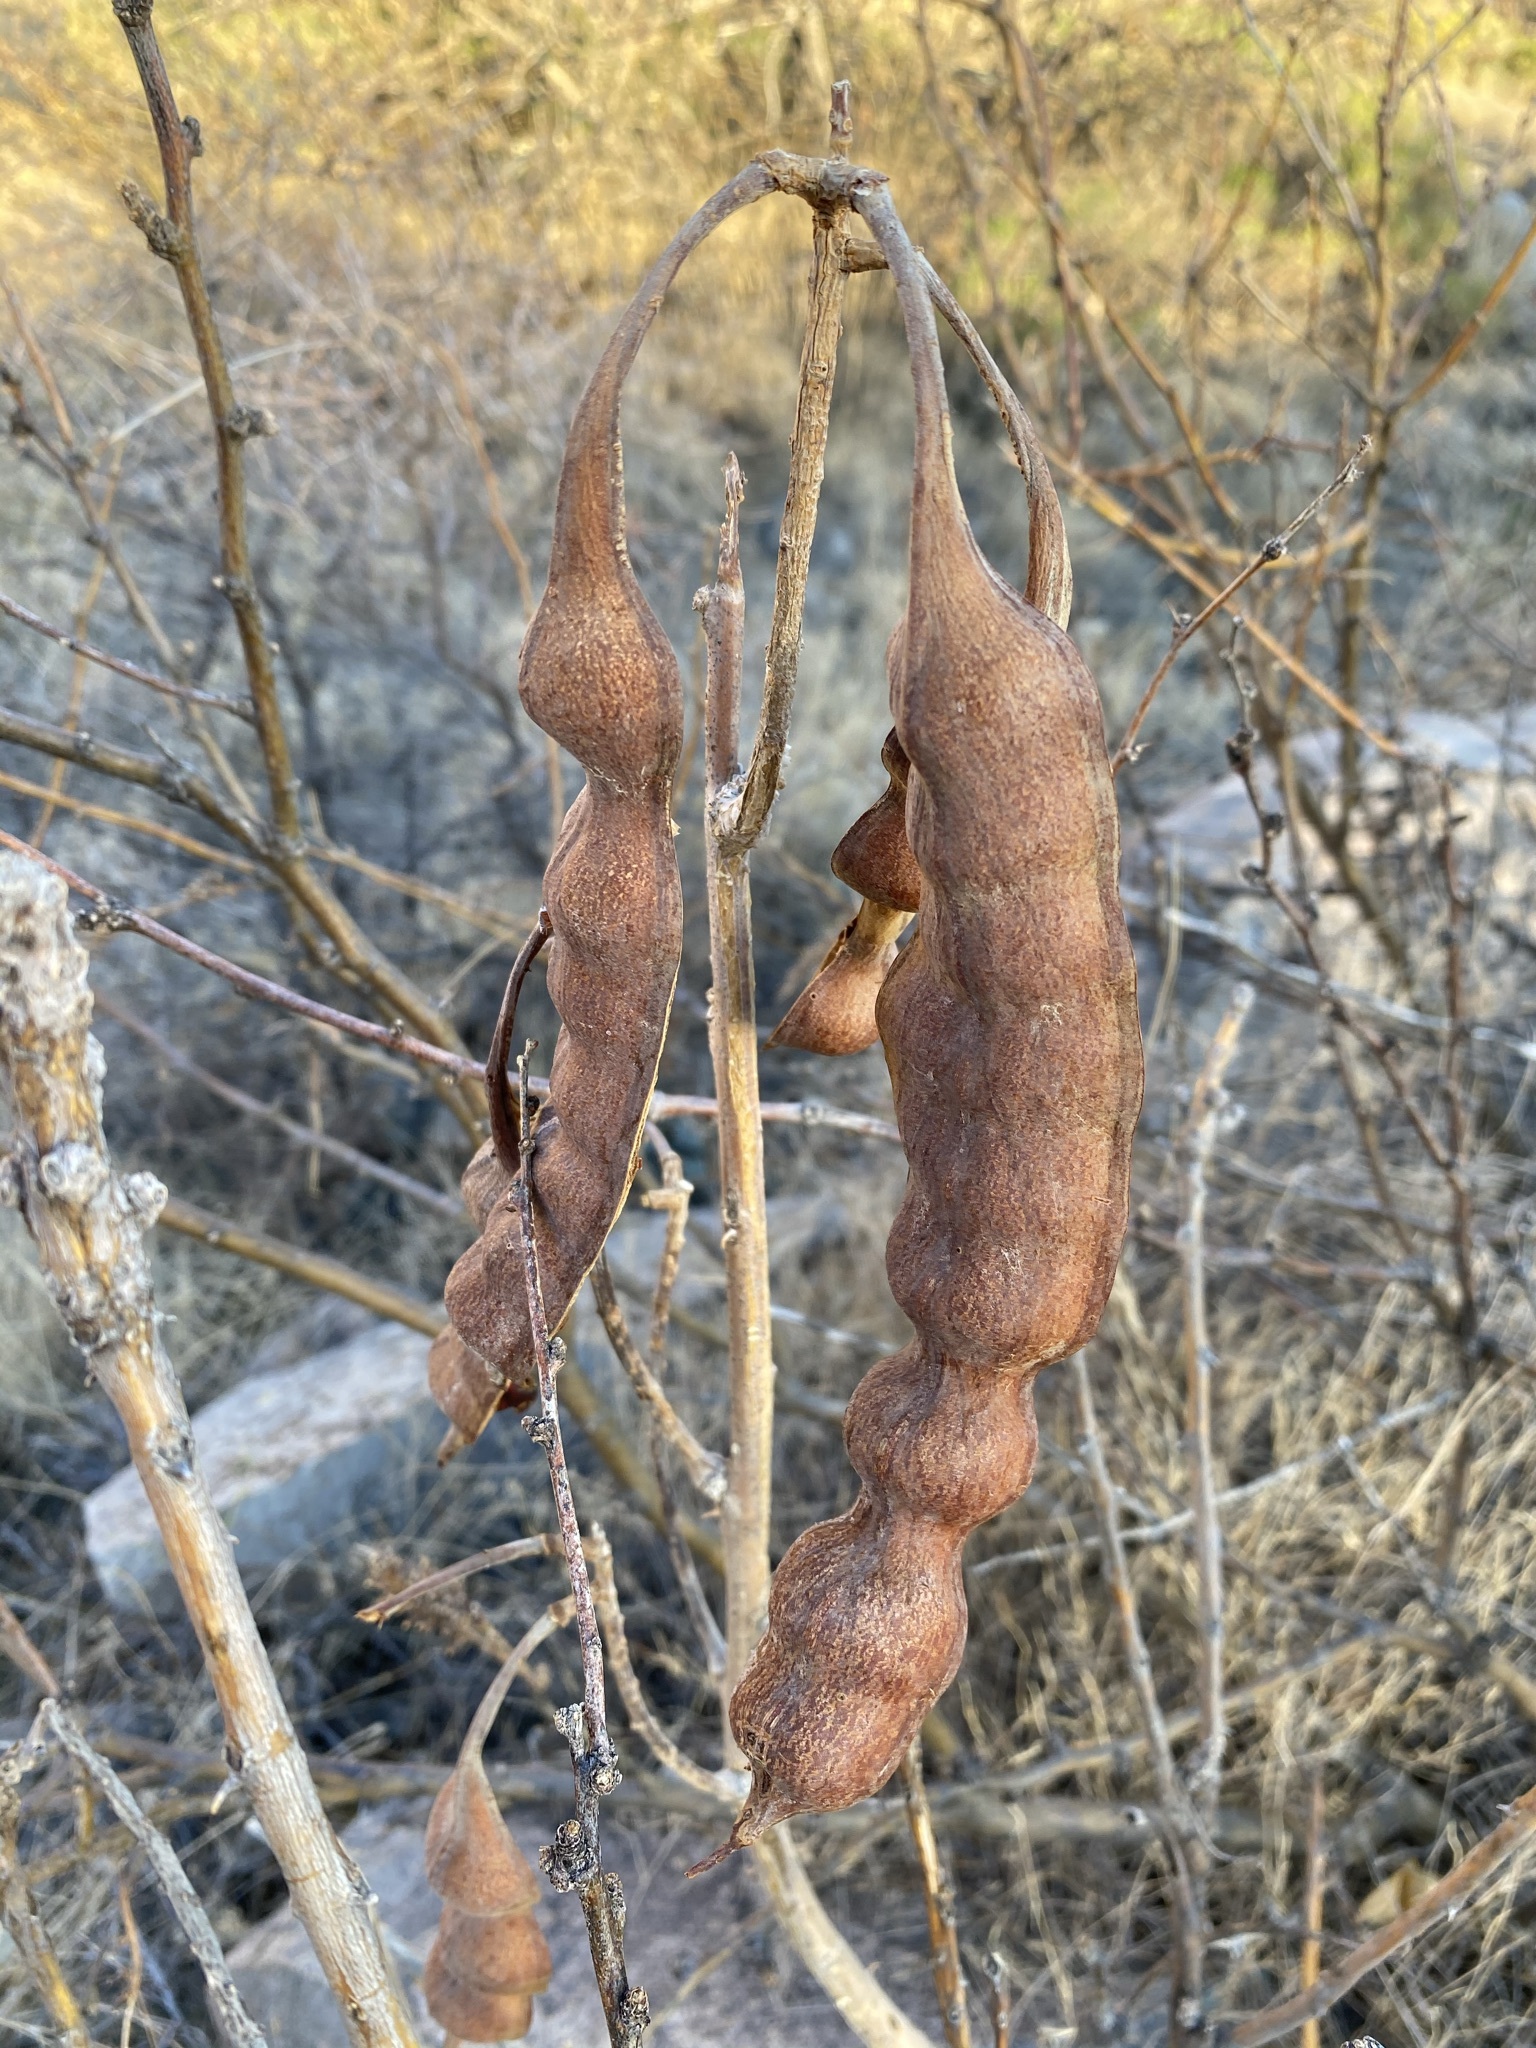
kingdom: Plantae
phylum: Tracheophyta
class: Magnoliopsida
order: Fabales
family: Fabaceae
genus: Erythrina
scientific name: Erythrina flabelliformis
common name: Chilicote
